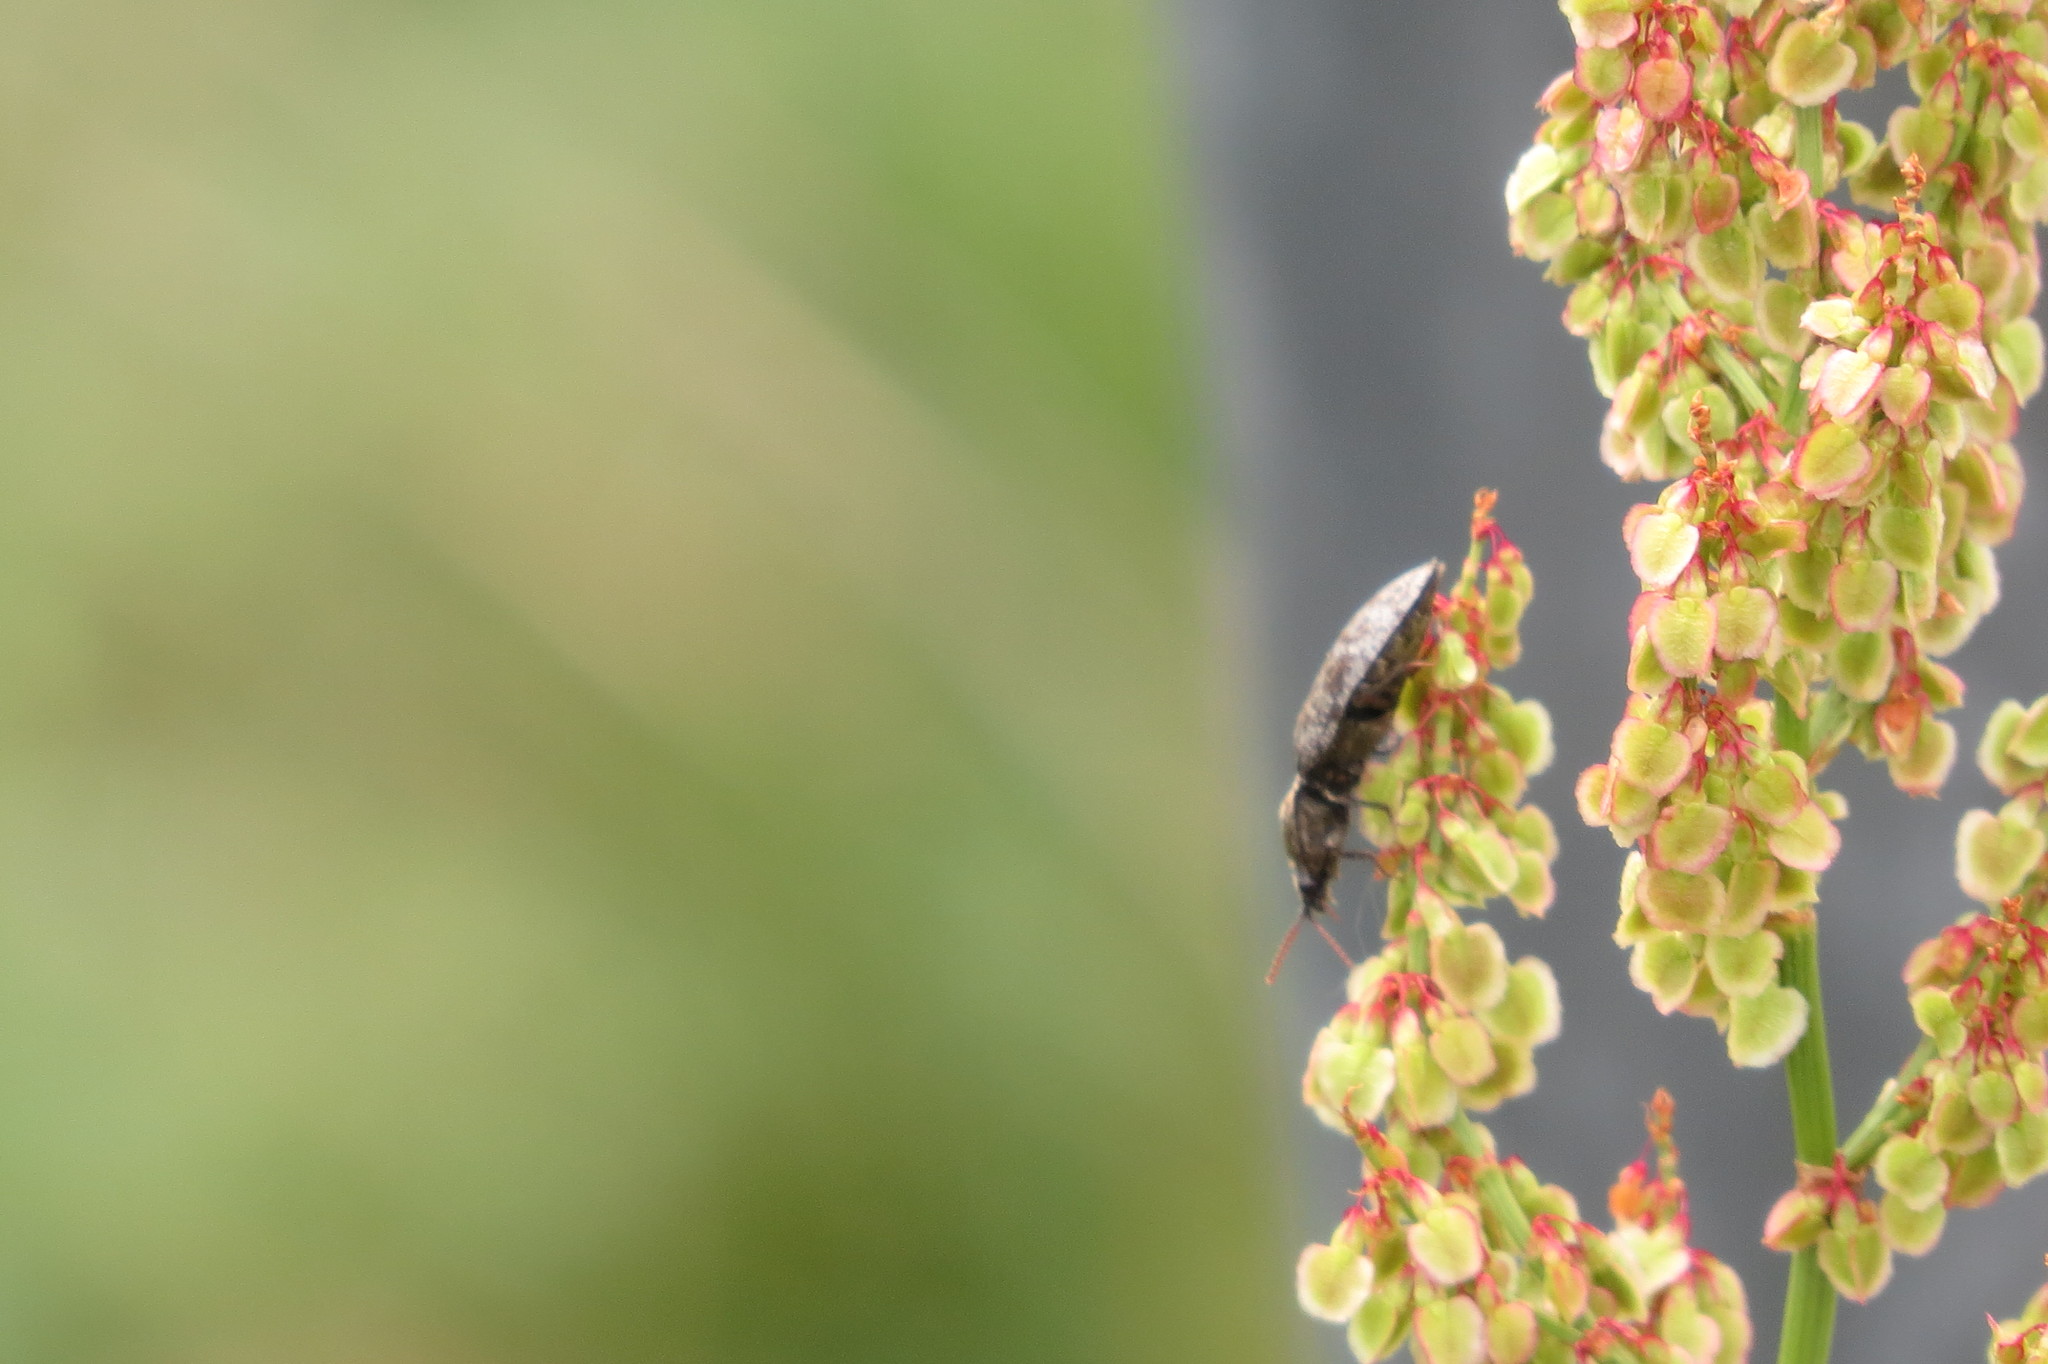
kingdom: Animalia
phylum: Arthropoda
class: Insecta
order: Coleoptera
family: Elateridae
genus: Agrypnus
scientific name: Agrypnus murinus
